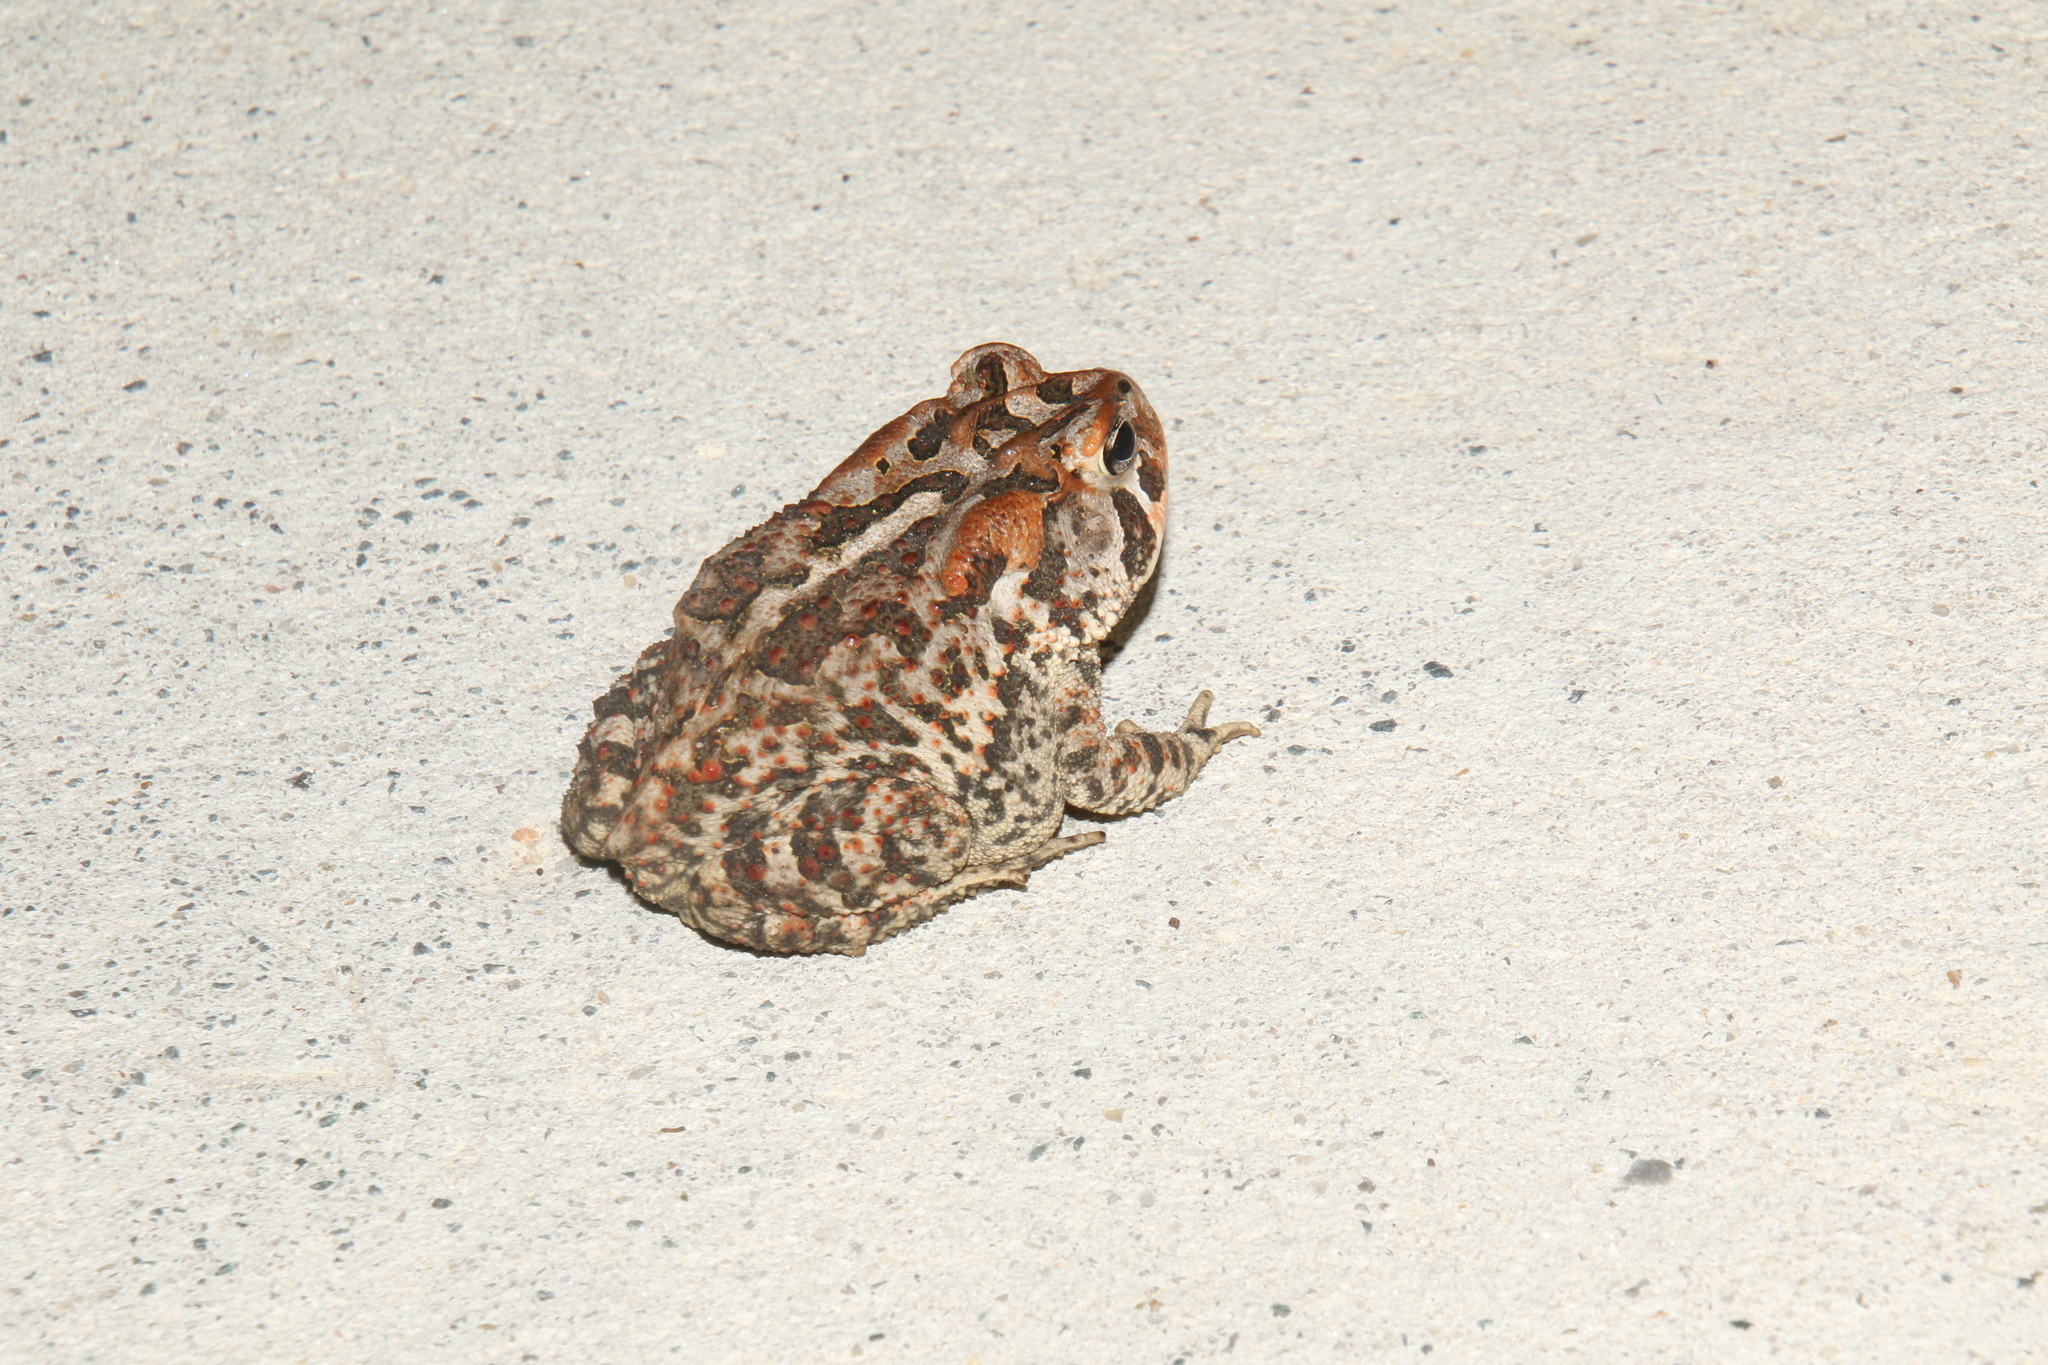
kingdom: Animalia
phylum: Chordata
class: Amphibia
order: Anura
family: Bufonidae
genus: Anaxyrus
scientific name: Anaxyrus terrestris
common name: Southern toad
